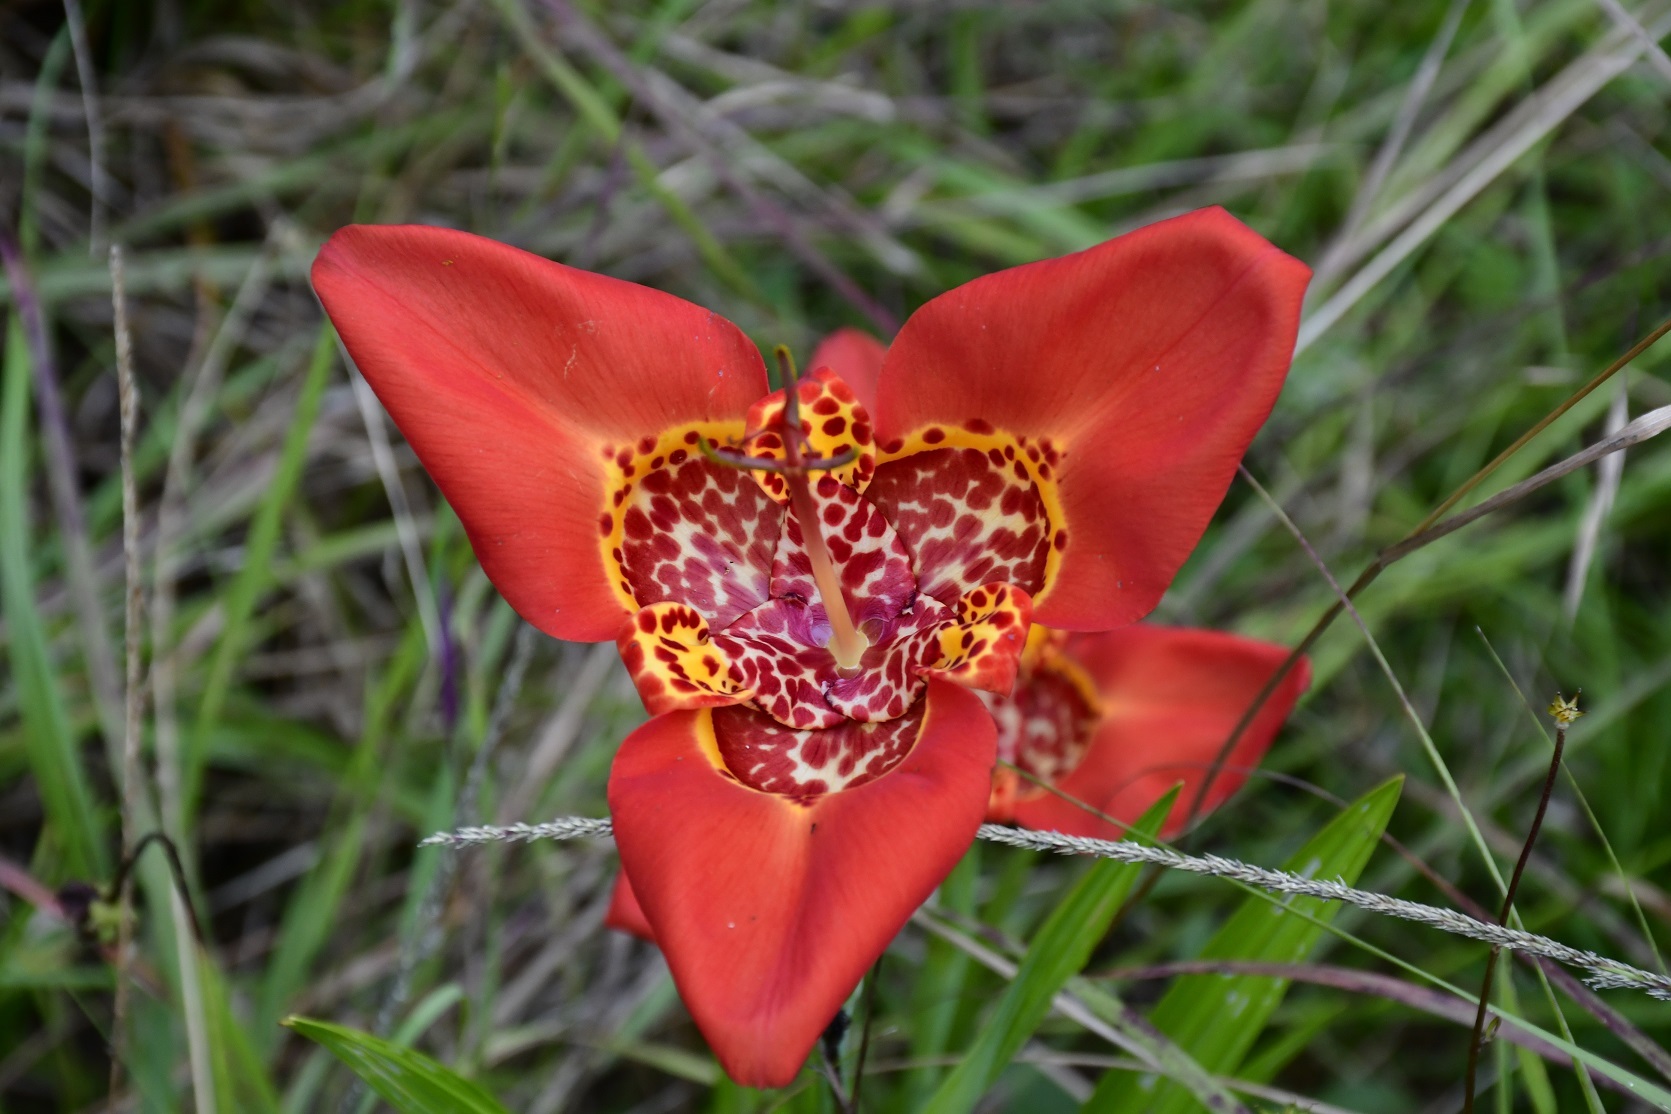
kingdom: Plantae
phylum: Tracheophyta
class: Liliopsida
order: Asparagales
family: Iridaceae
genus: Tigridia
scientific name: Tigridia pavonia
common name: Peacock-flower
